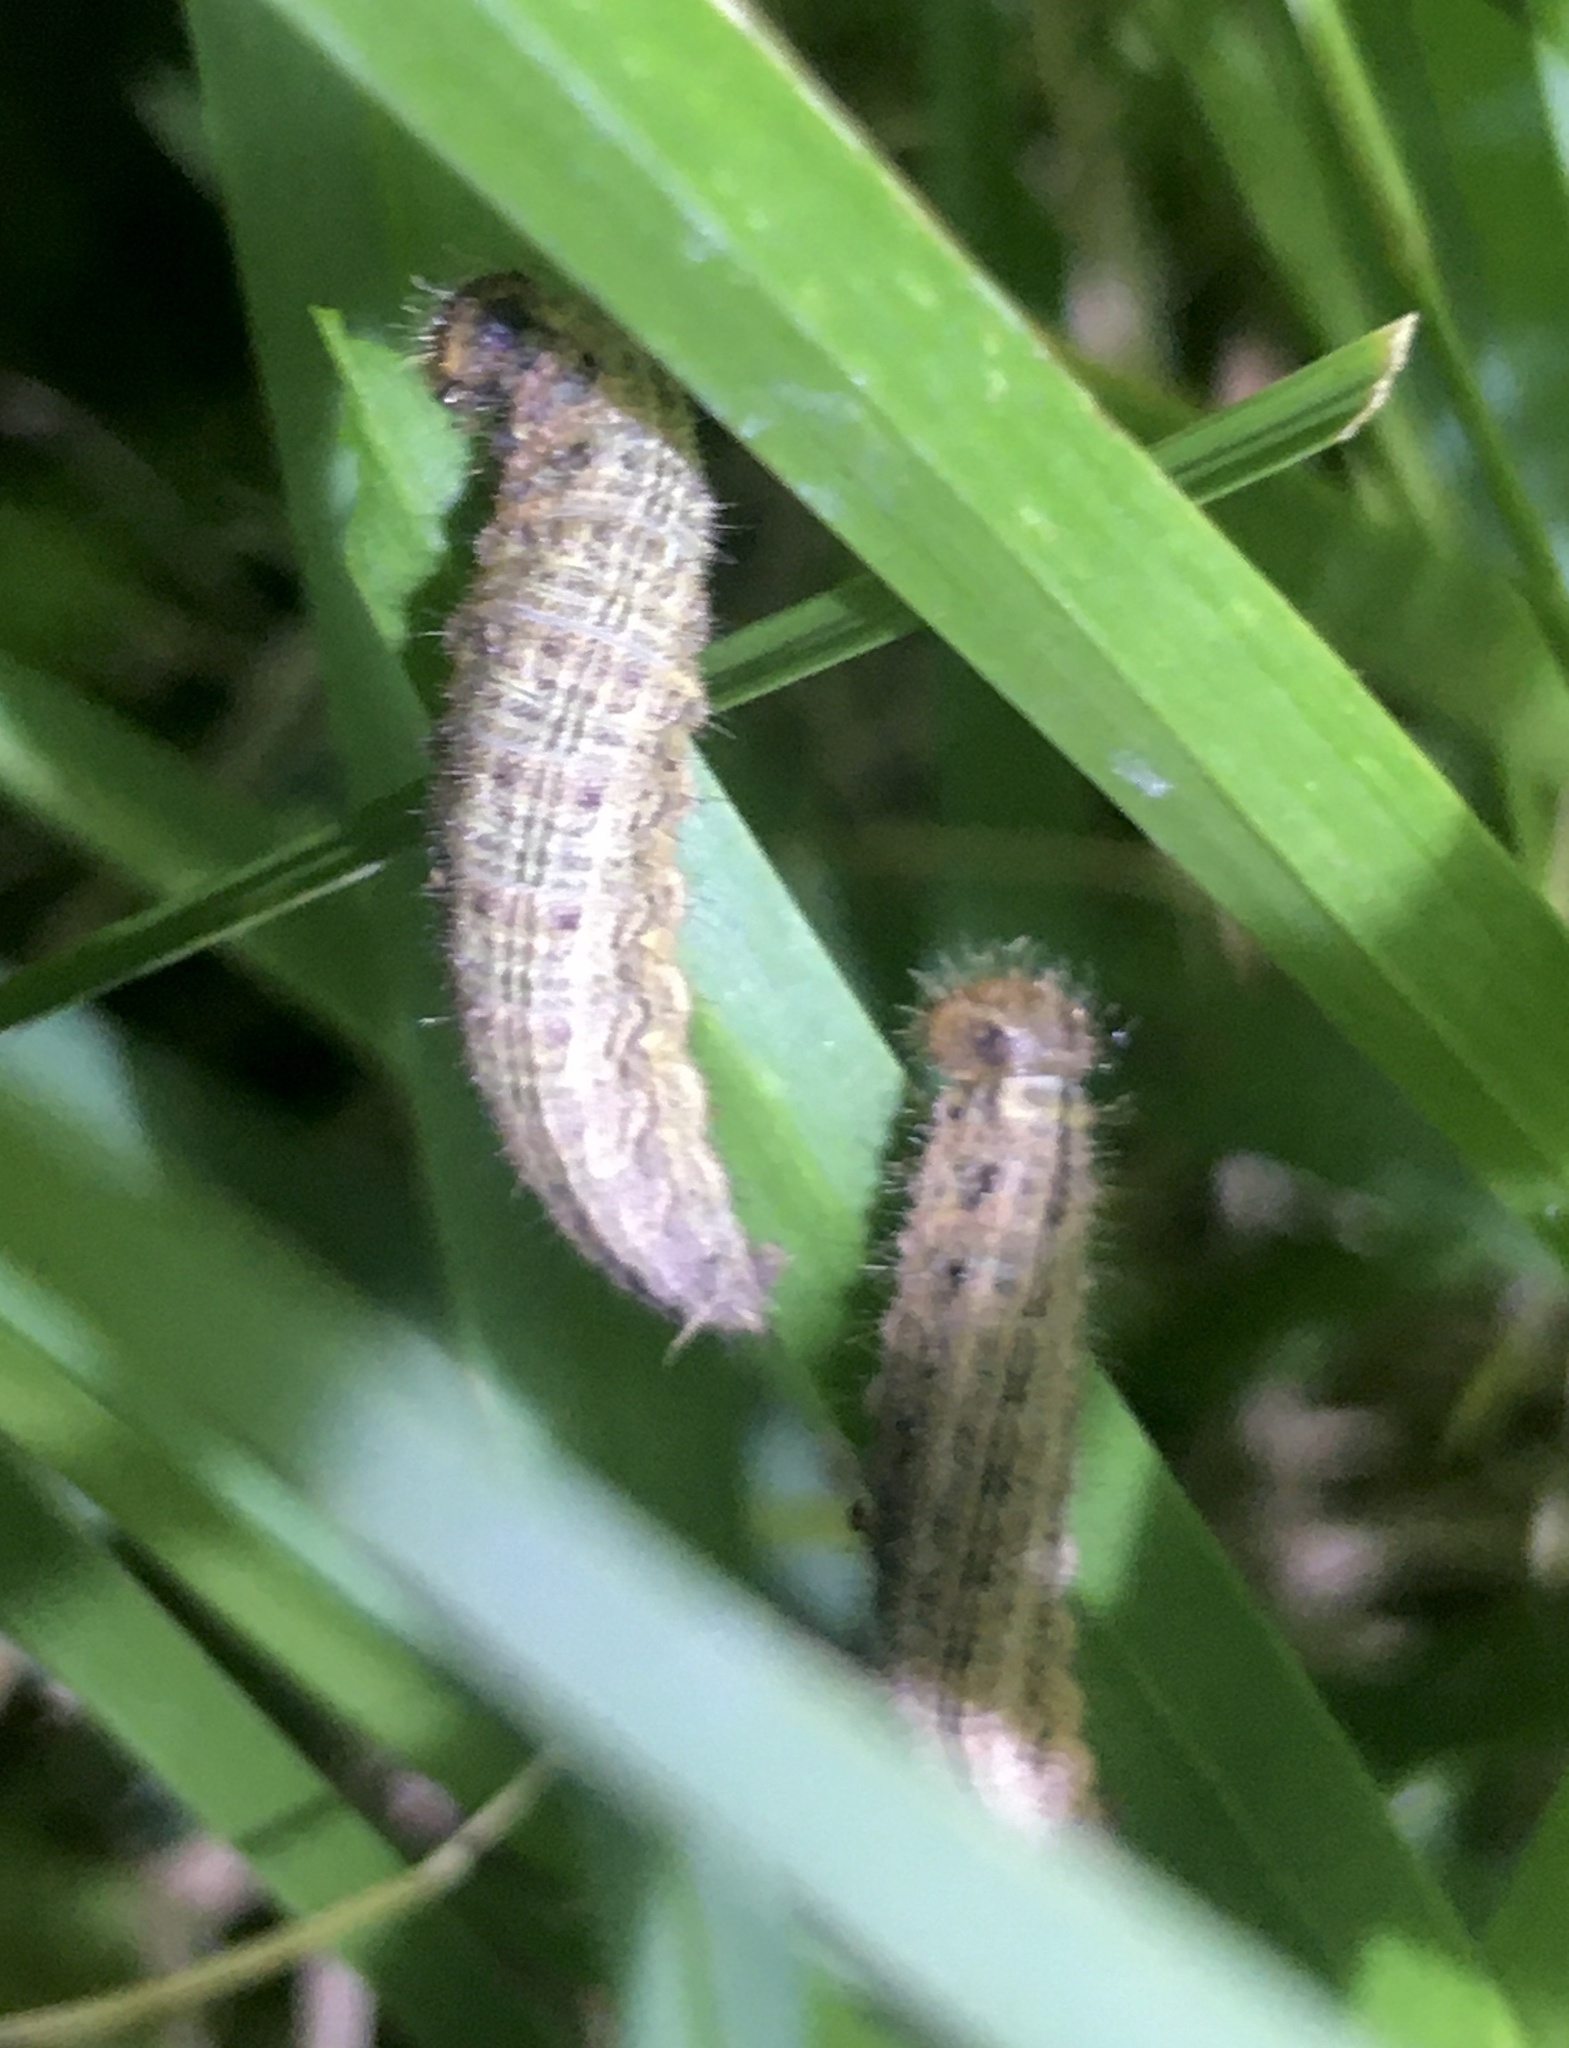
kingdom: Animalia
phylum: Arthropoda
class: Insecta
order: Lepidoptera
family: Nymphalidae
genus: Dira
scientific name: Dira clytus
